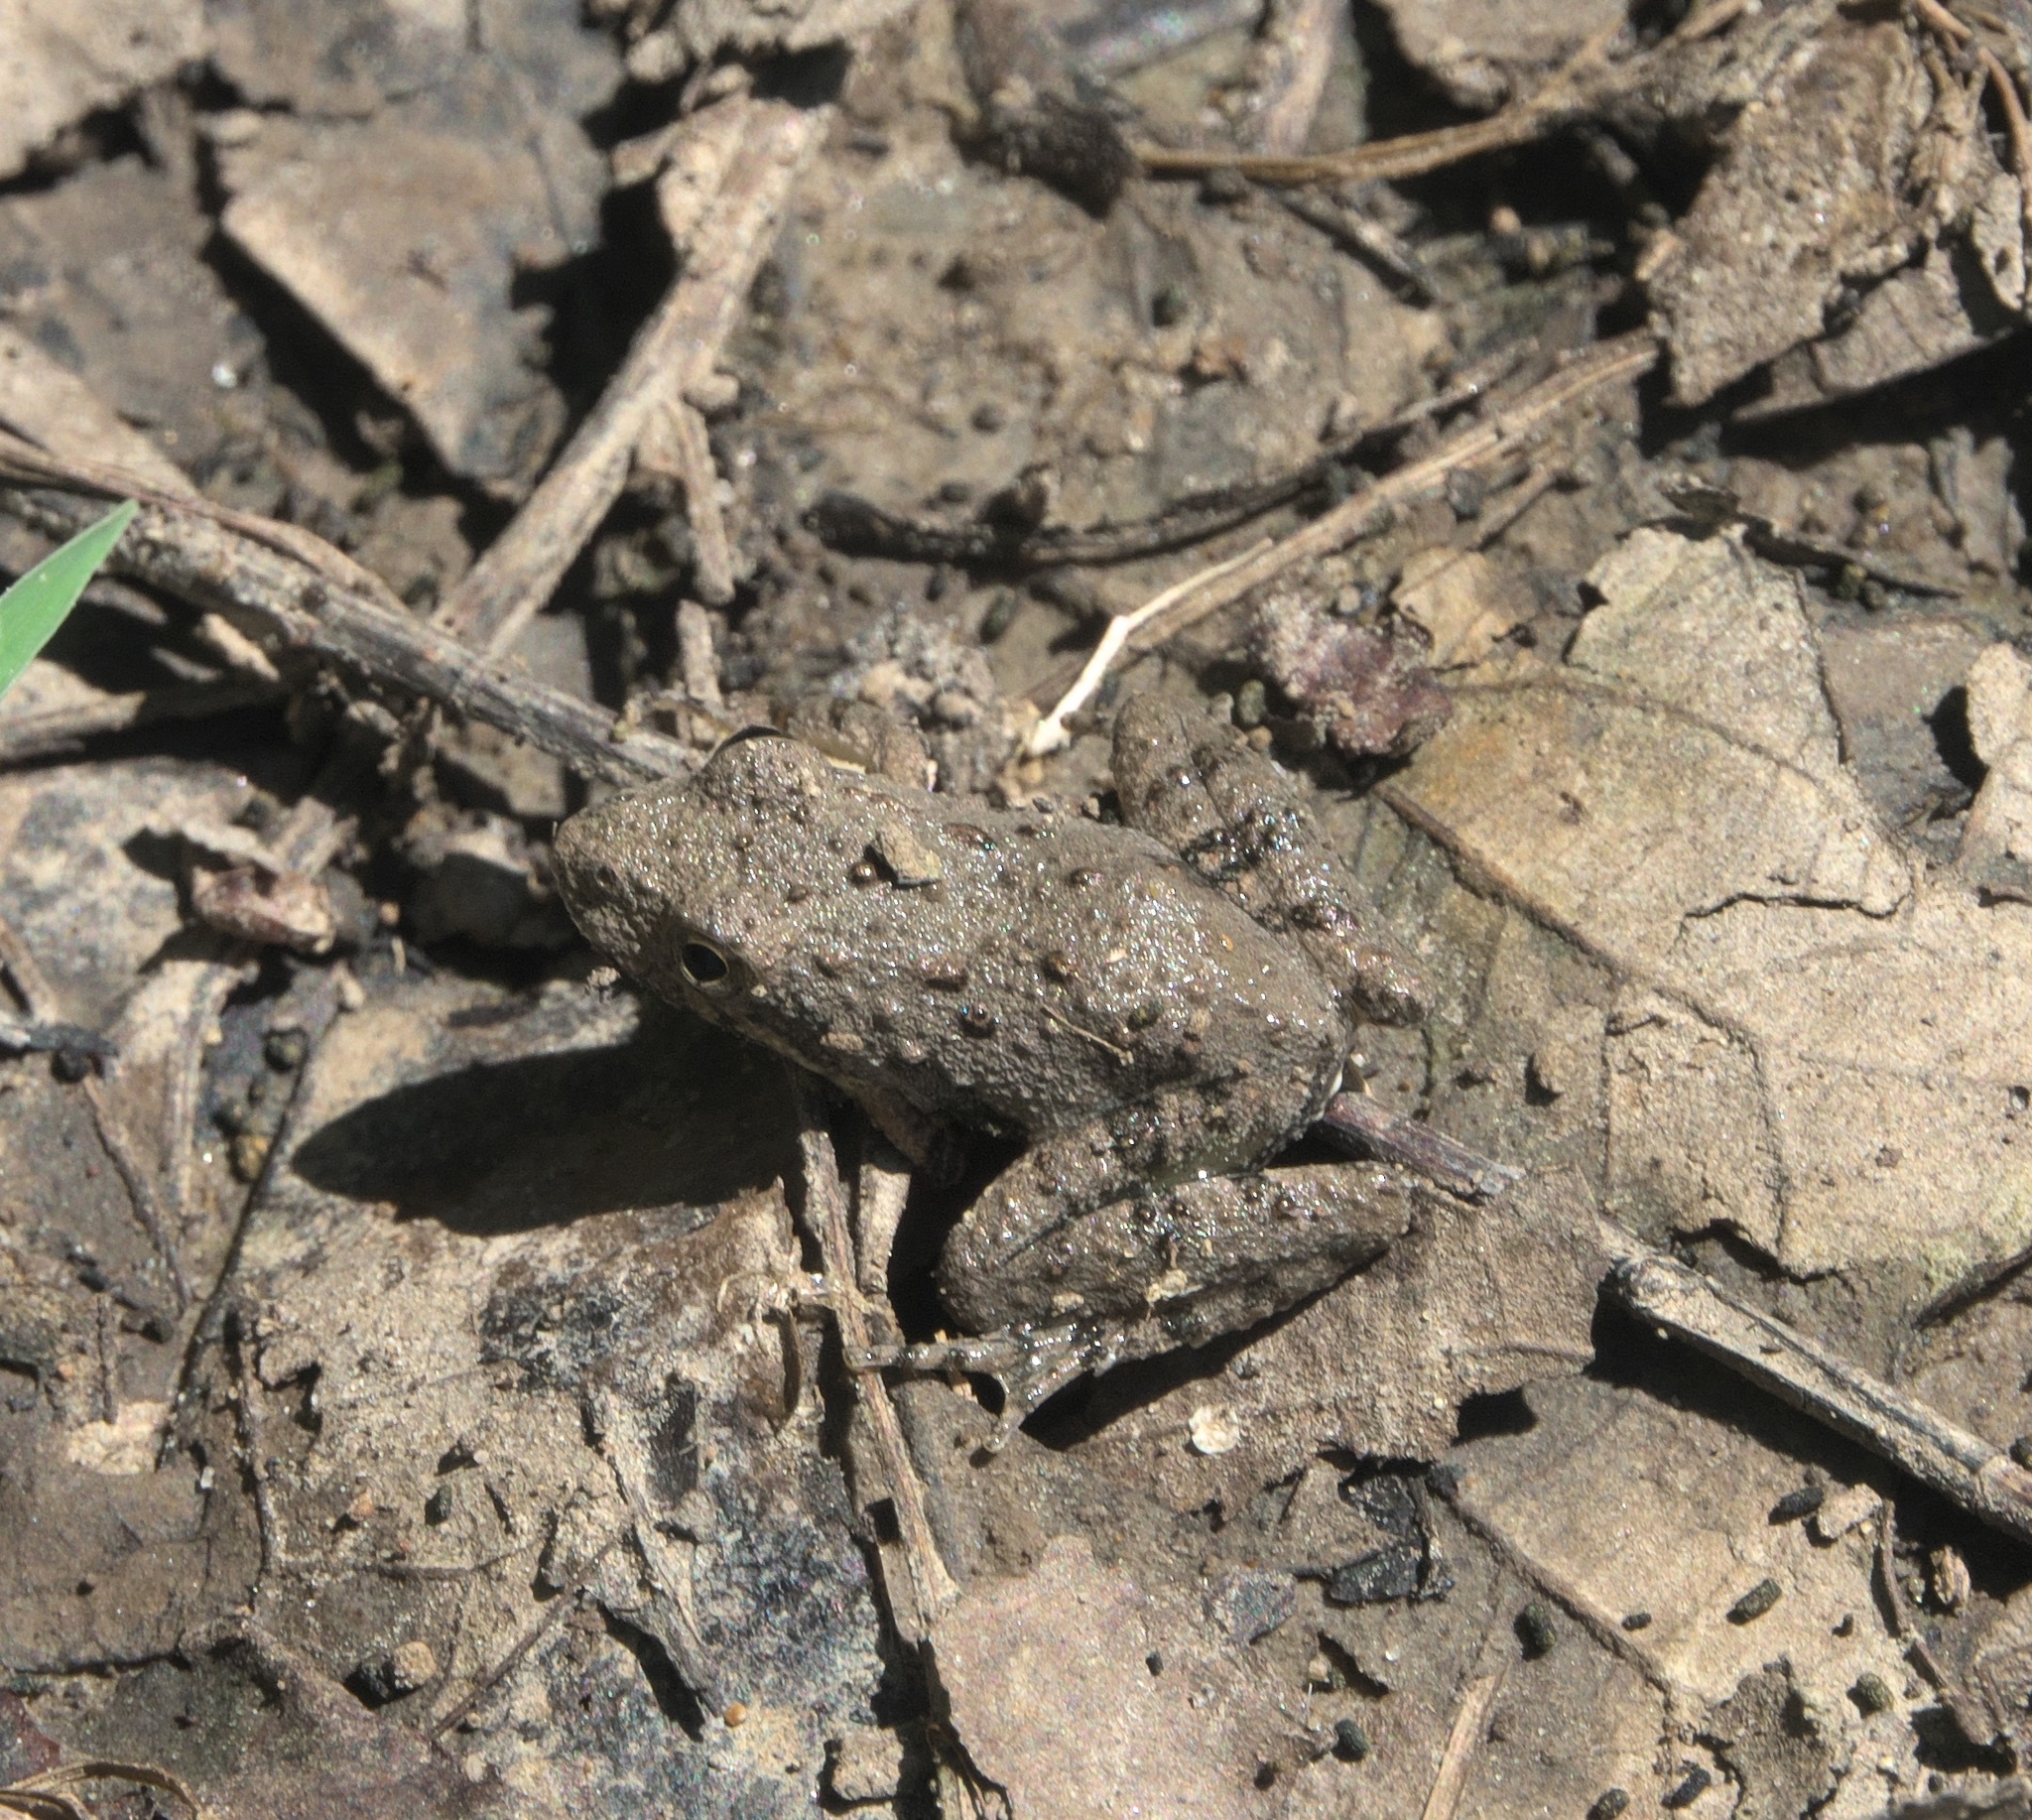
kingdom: Animalia
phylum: Chordata
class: Amphibia
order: Anura
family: Hylidae
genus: Acris
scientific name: Acris blanchardi
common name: Blanchard's cricket frog
